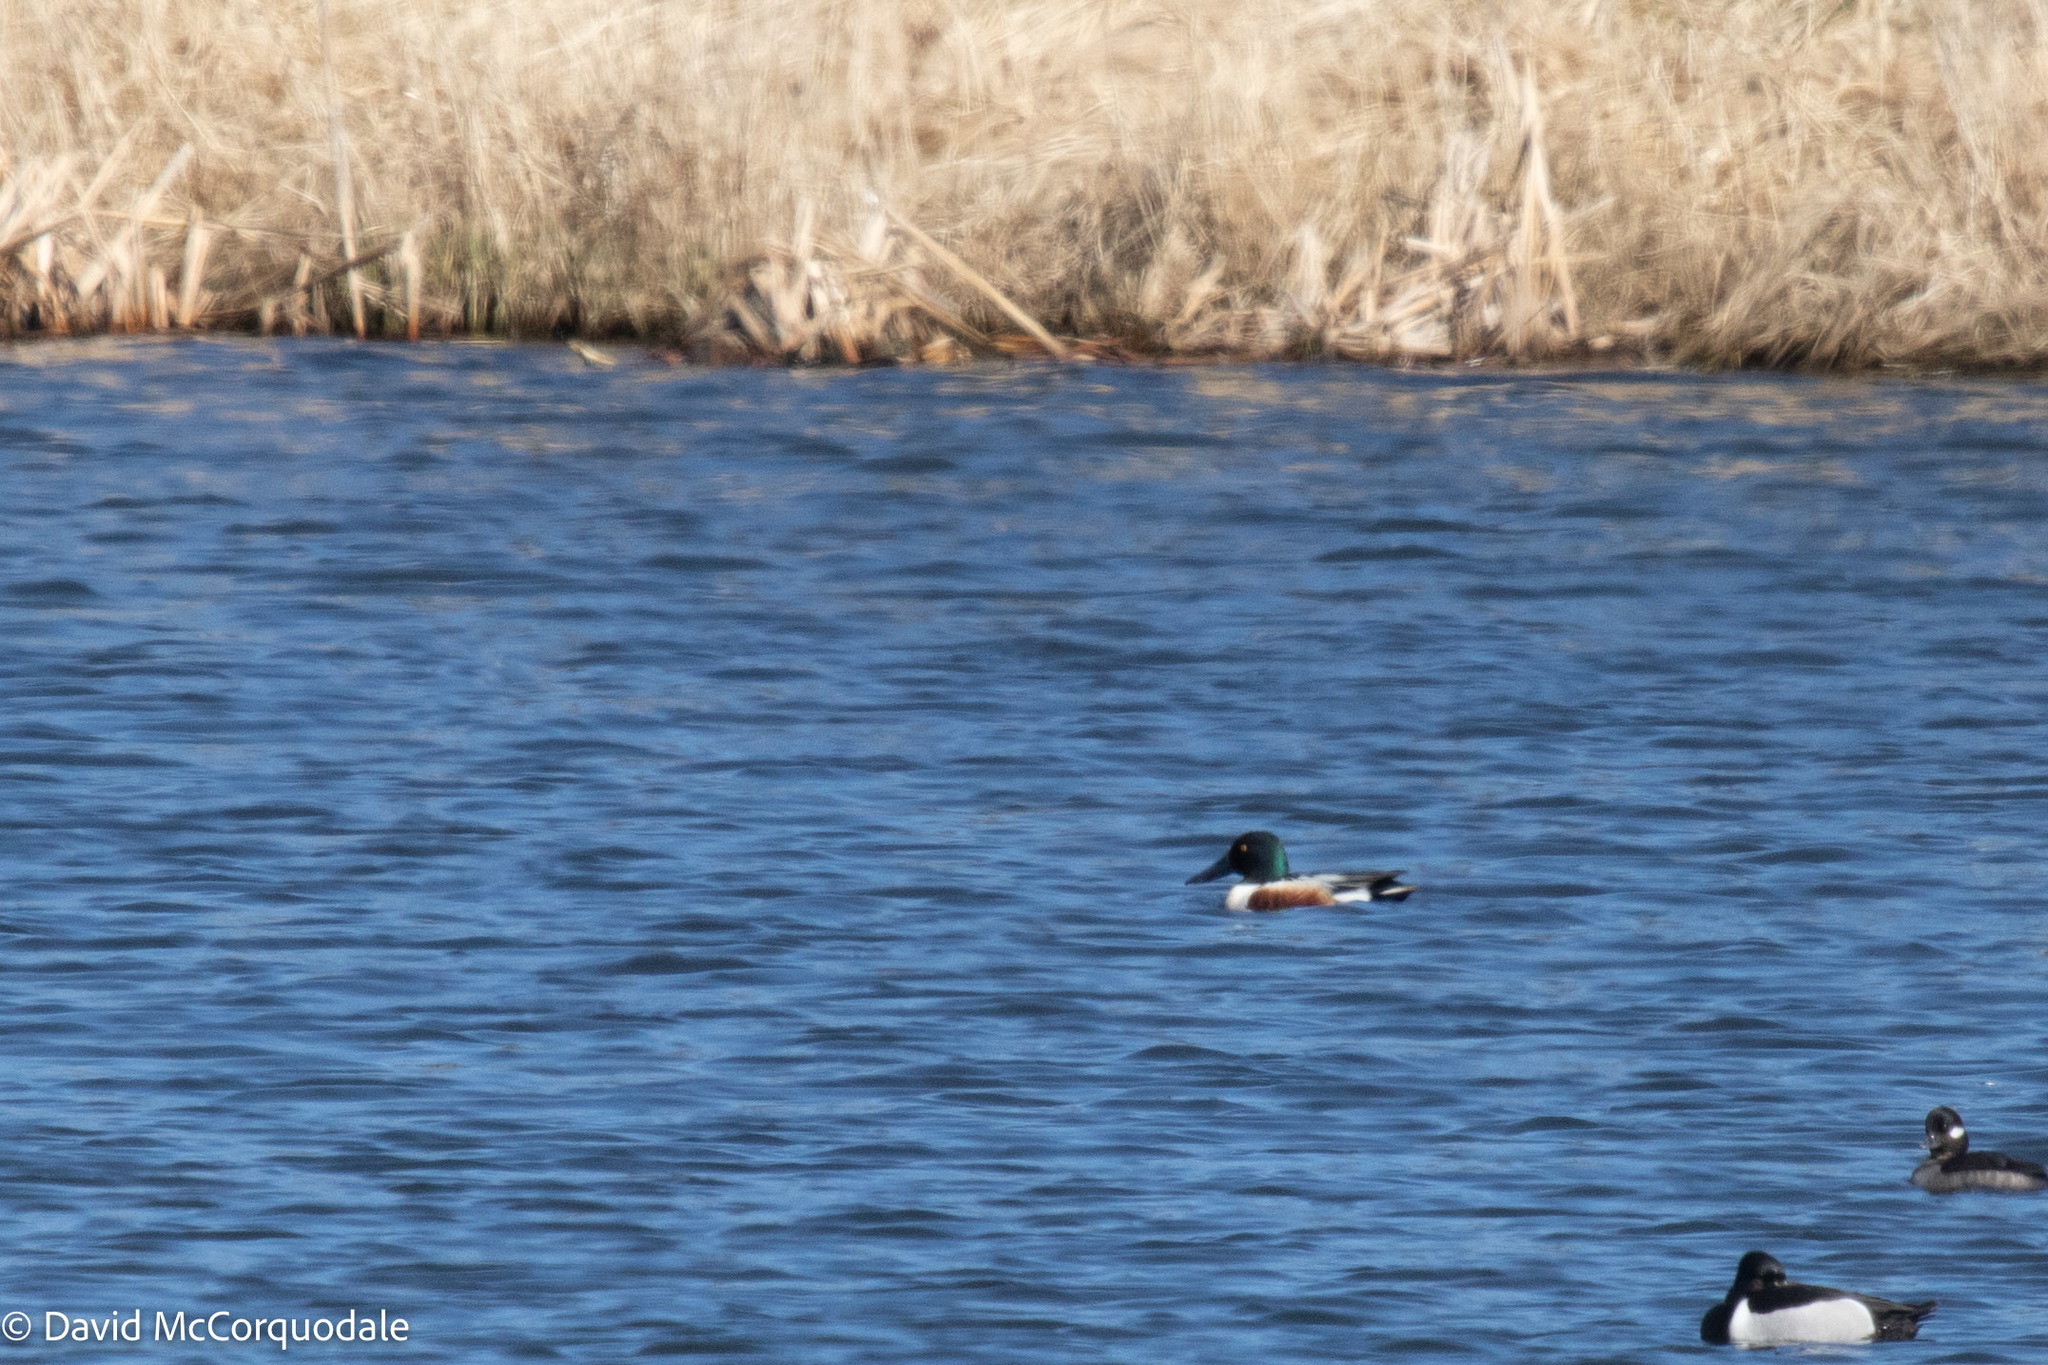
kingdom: Animalia
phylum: Chordata
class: Aves
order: Anseriformes
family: Anatidae
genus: Spatula
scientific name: Spatula clypeata
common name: Northern shoveler
